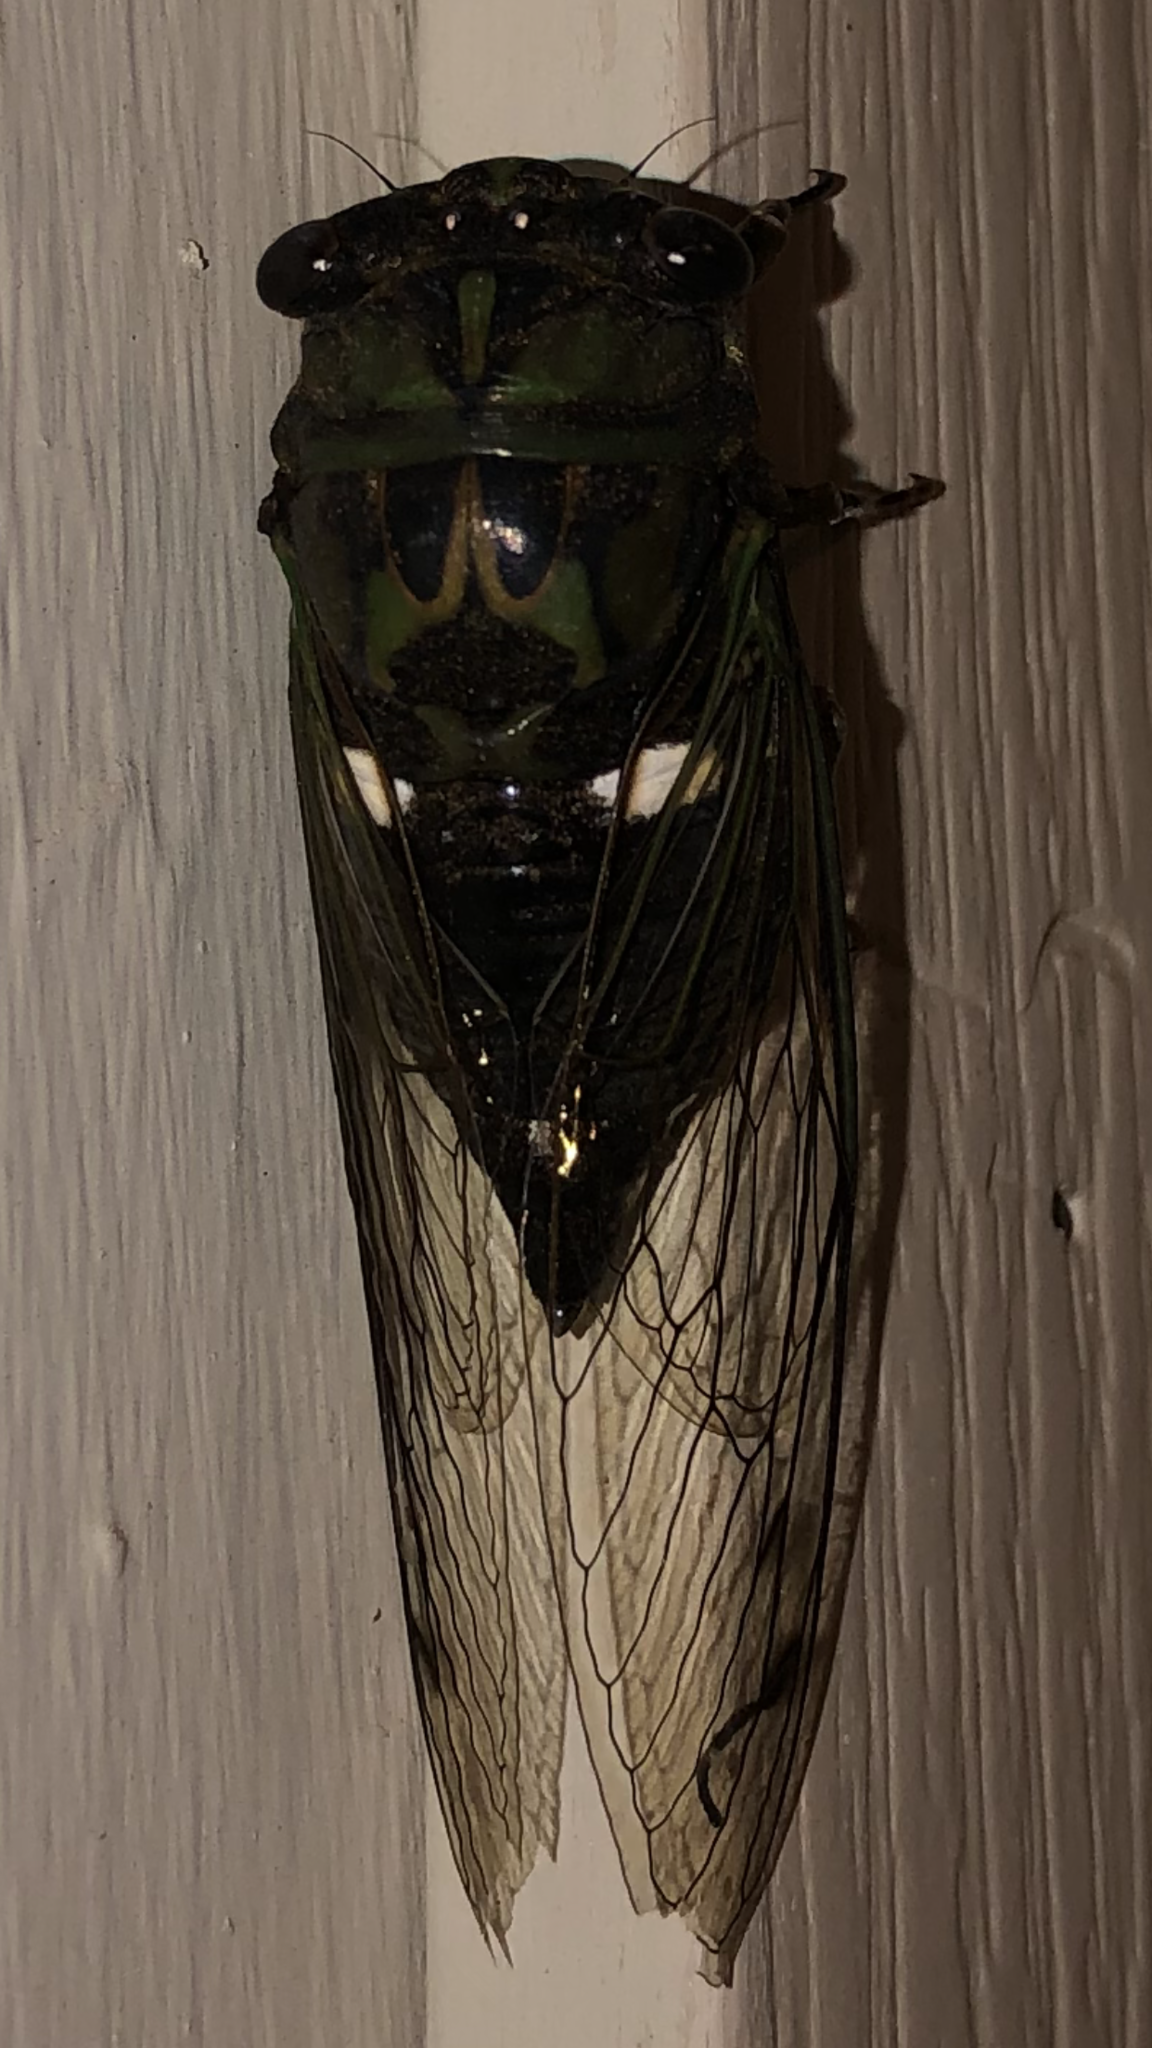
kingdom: Animalia
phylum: Arthropoda
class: Insecta
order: Hemiptera
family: Cicadidae
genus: Neotibicen
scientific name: Neotibicen pruinosus
